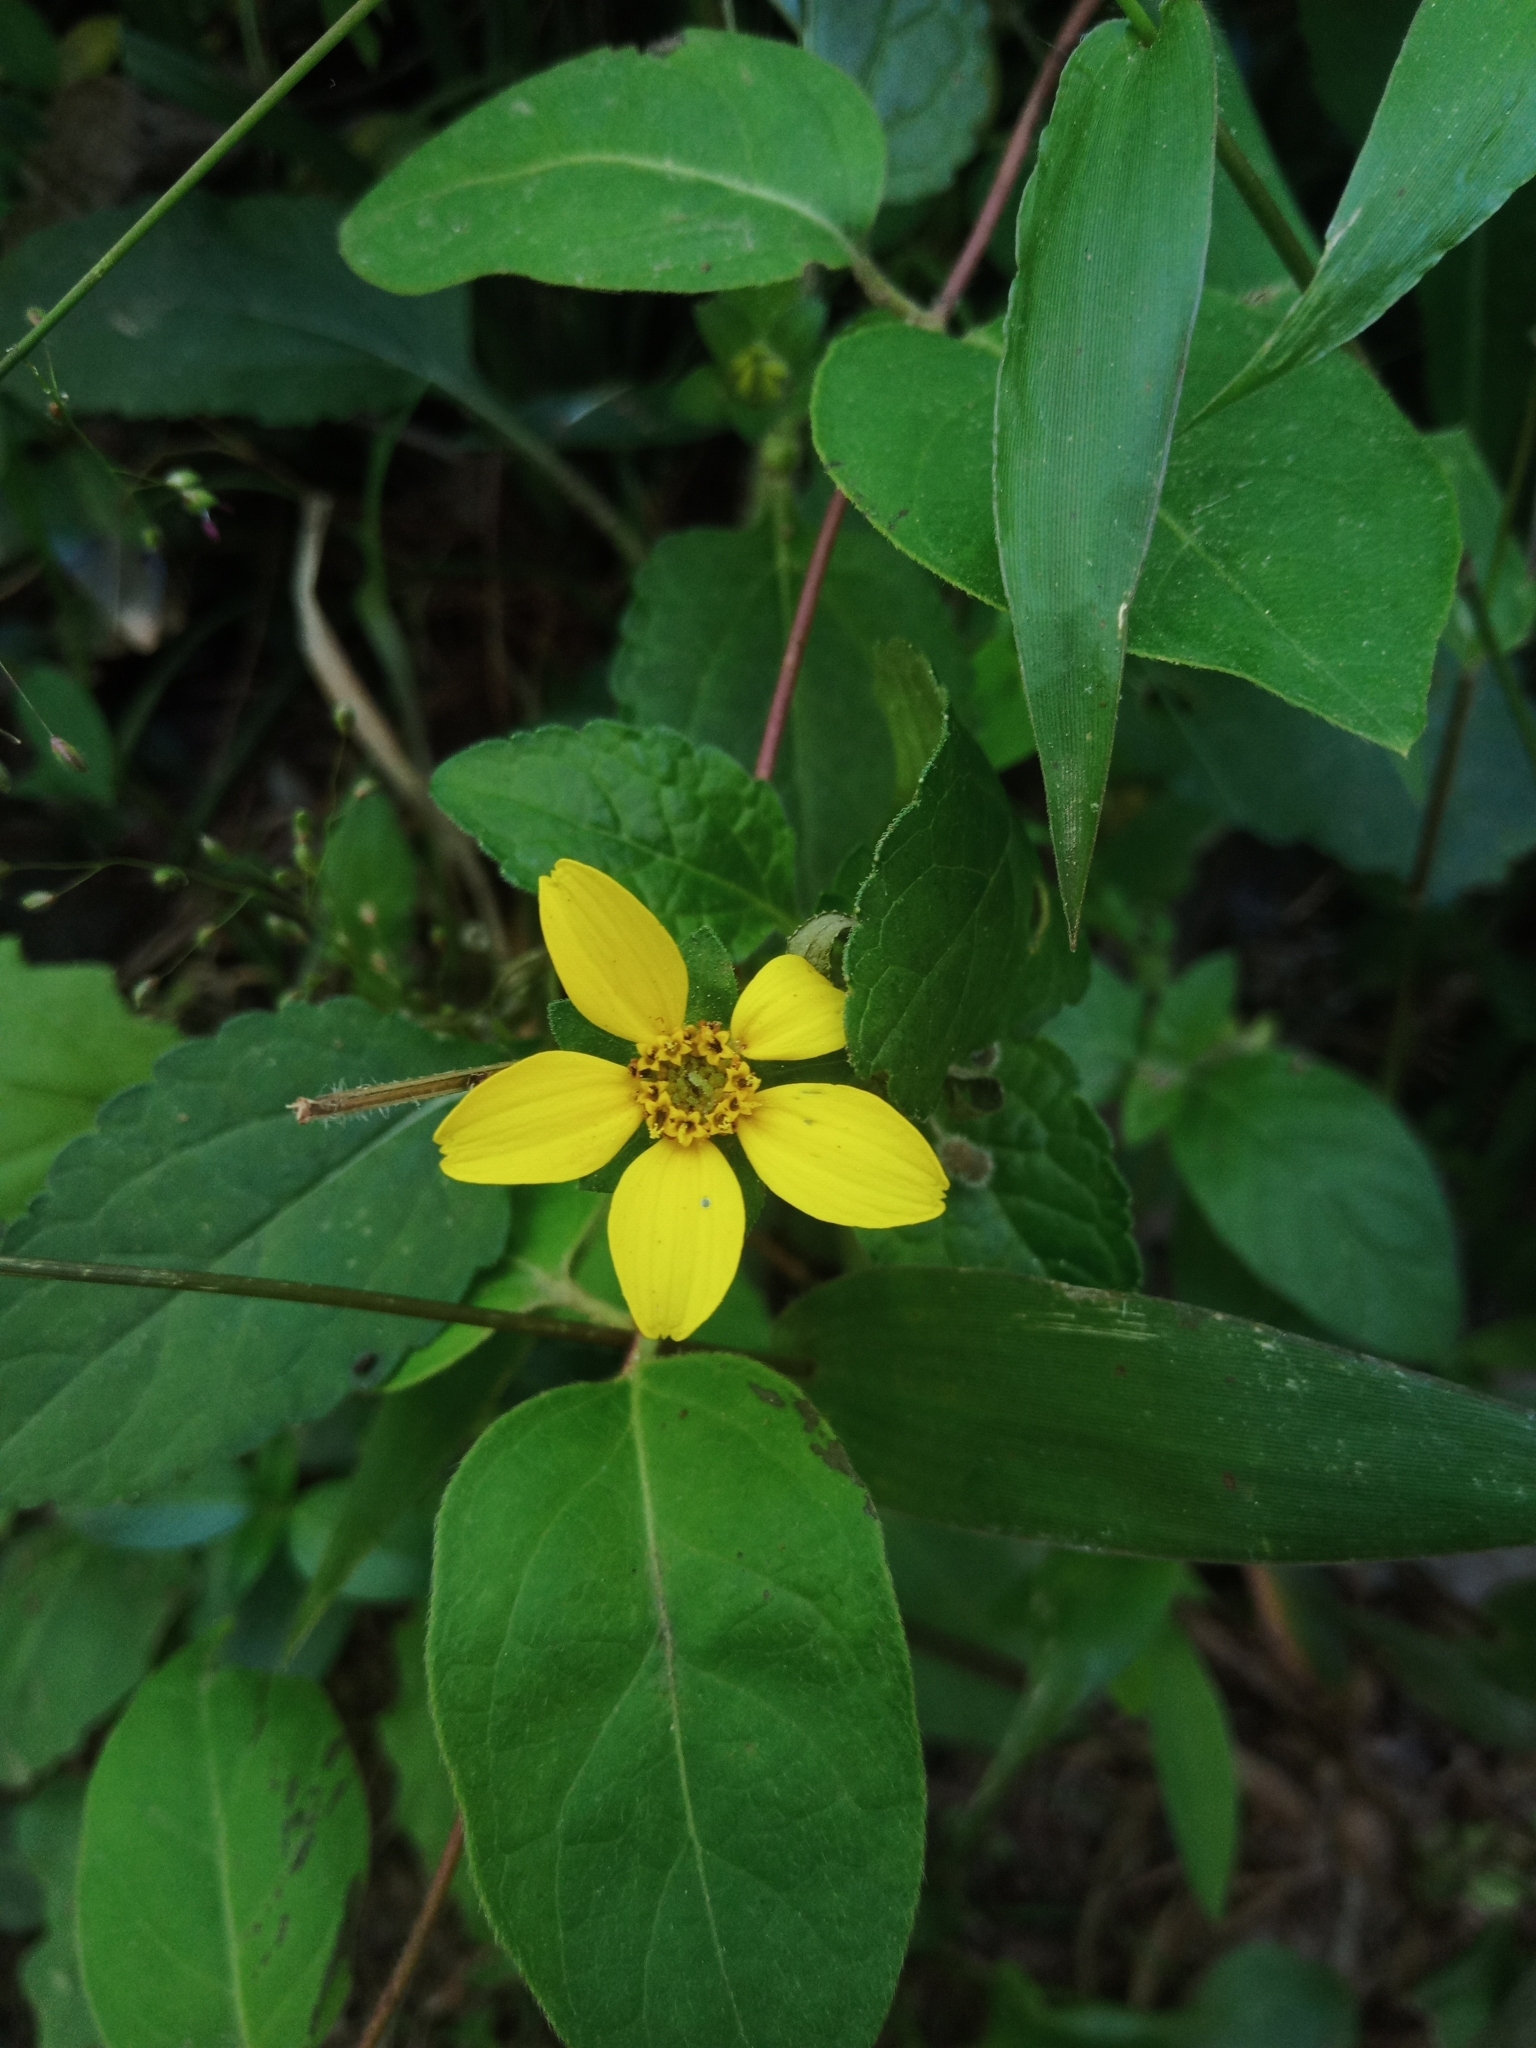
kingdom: Plantae
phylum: Tracheophyta
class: Magnoliopsida
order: Asterales
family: Asteraceae
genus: Chrysogonum
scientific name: Chrysogonum virginianum
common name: Golden-knee
